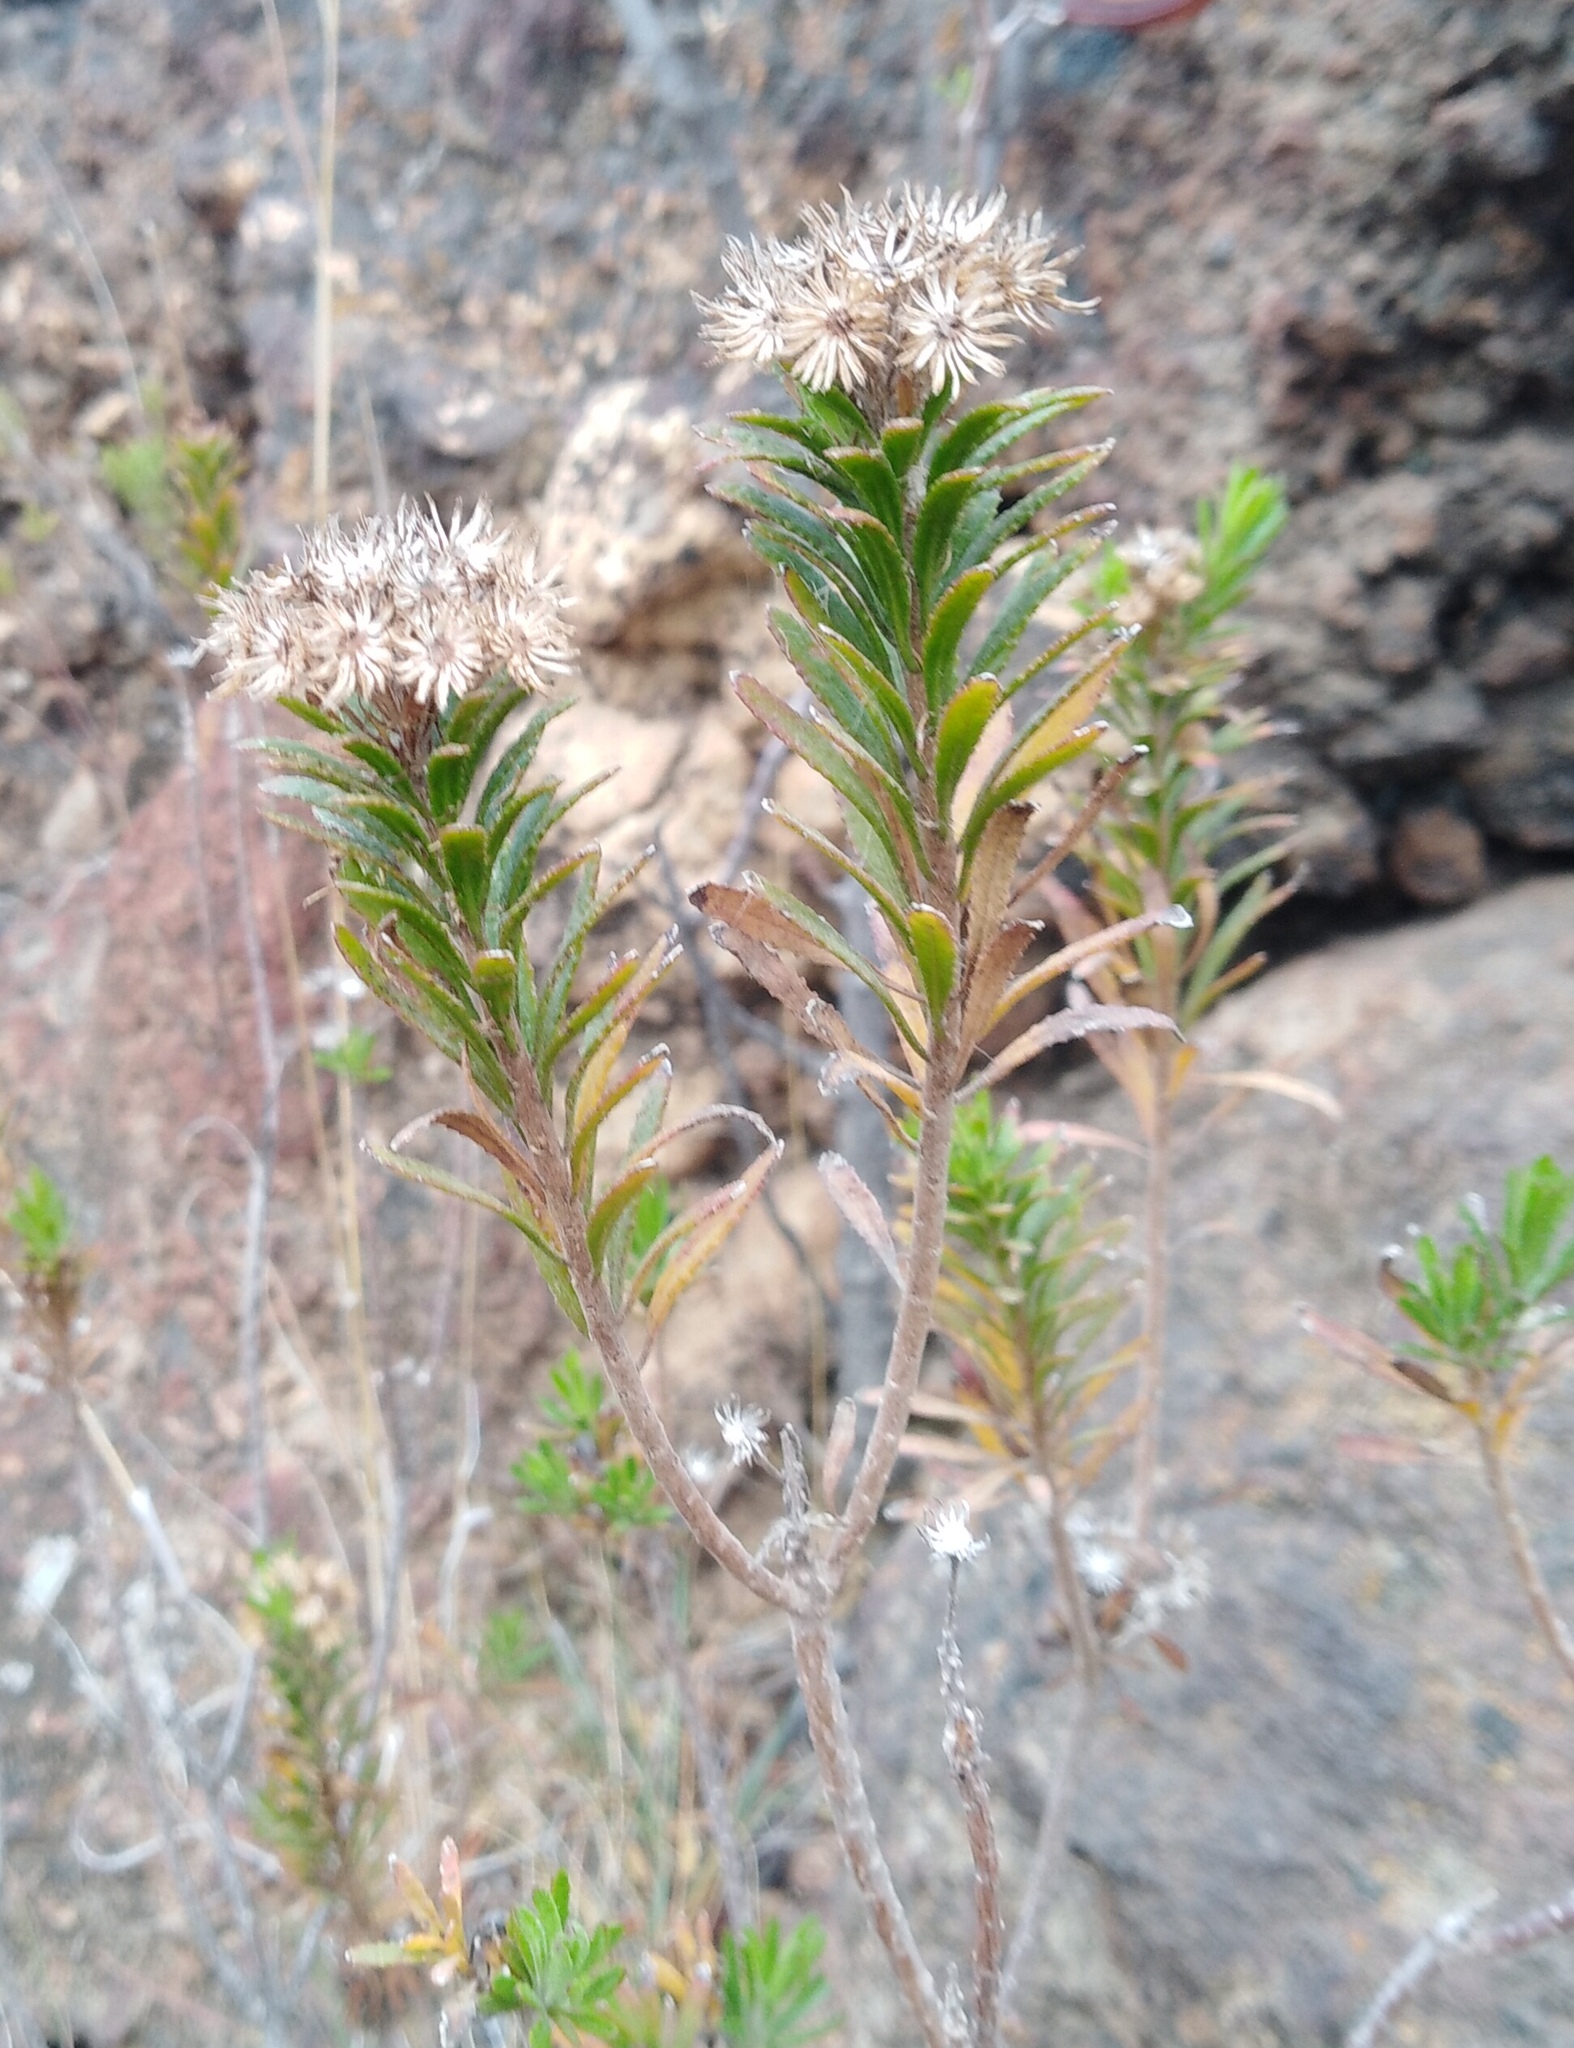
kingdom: Plantae
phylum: Tracheophyta
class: Magnoliopsida
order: Asterales
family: Asteraceae
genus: Allagopappus
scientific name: Allagopappus canariensis
